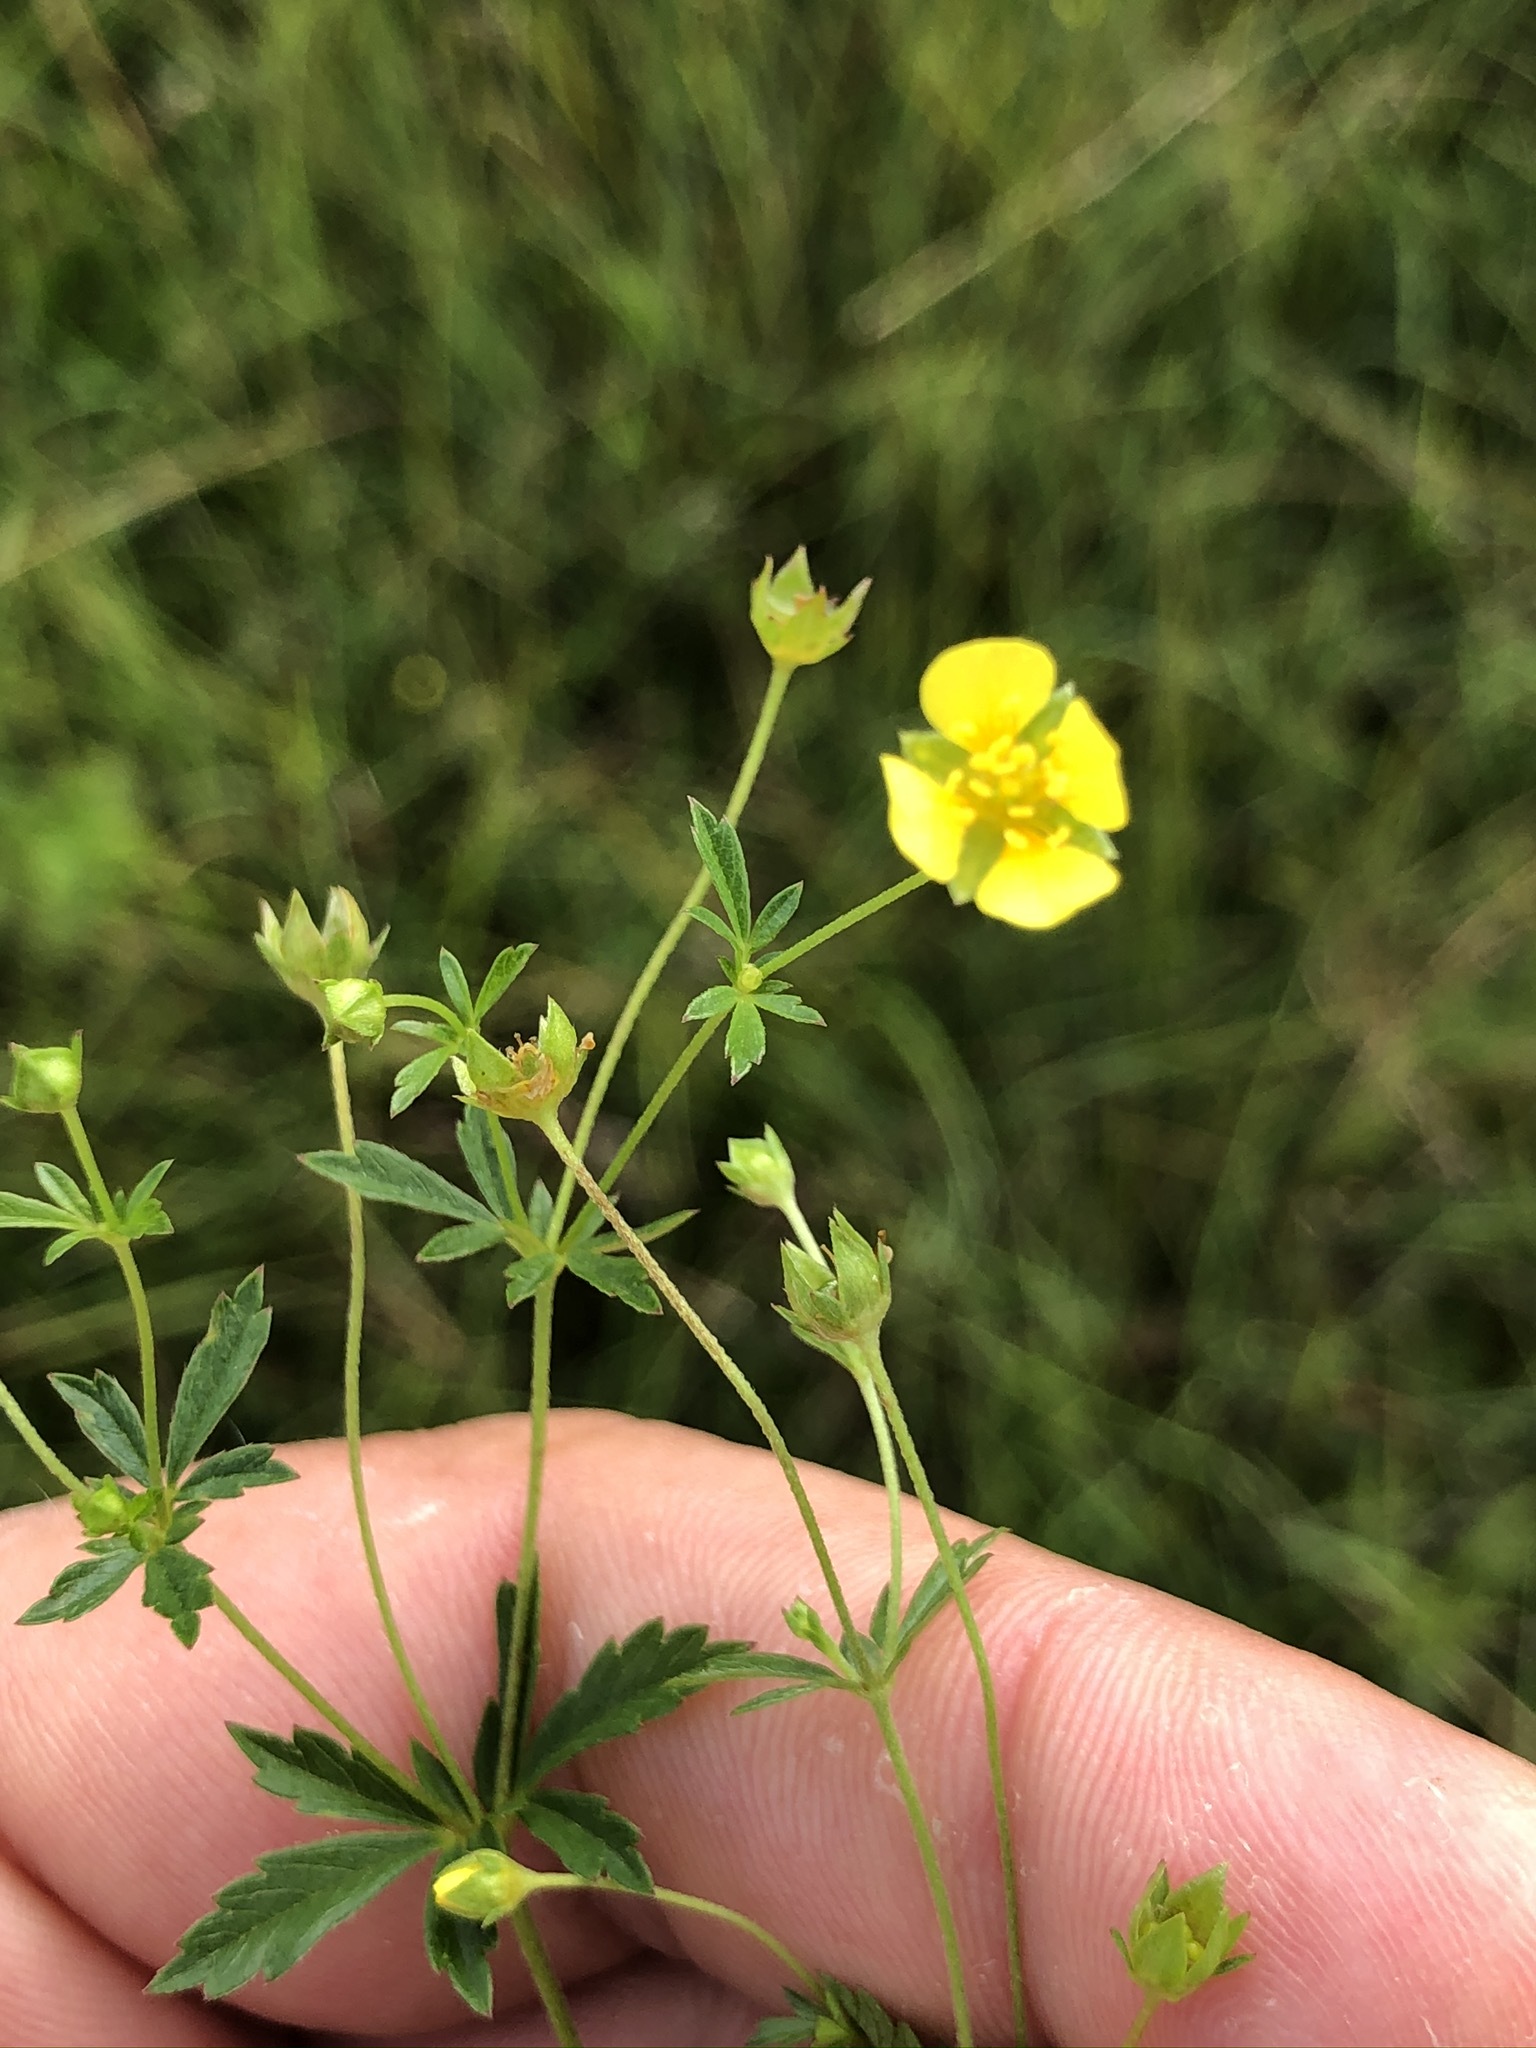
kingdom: Plantae
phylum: Tracheophyta
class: Magnoliopsida
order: Rosales
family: Rosaceae
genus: Potentilla
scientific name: Potentilla erecta
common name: Tormentil
